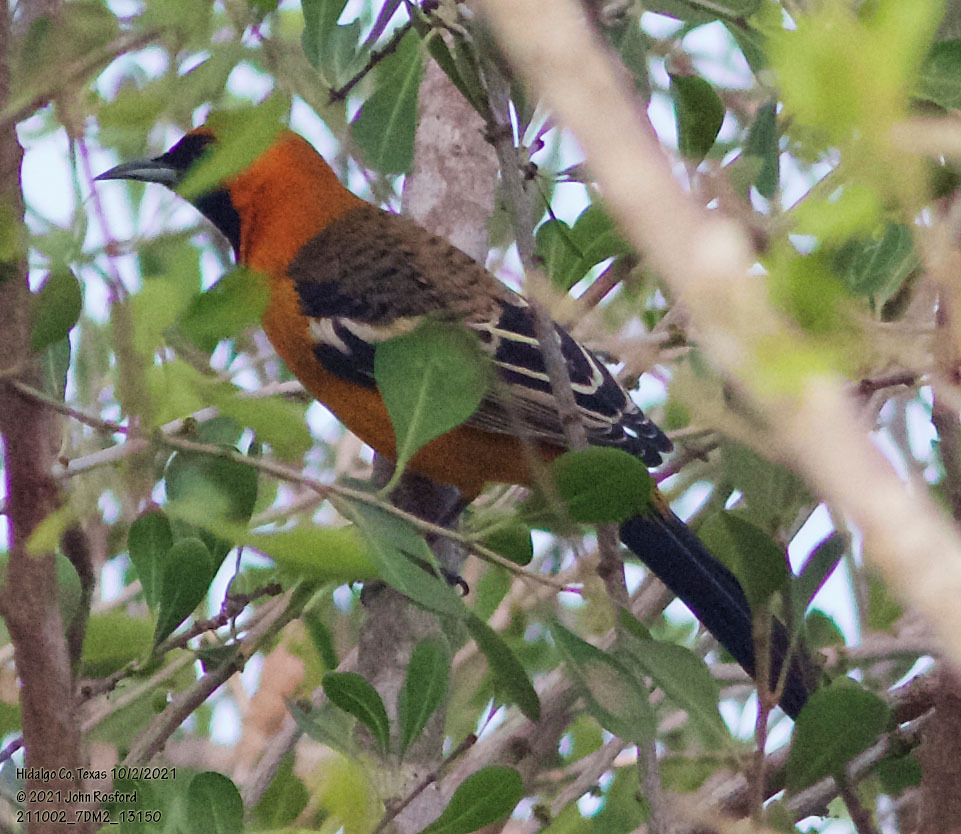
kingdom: Animalia
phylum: Chordata
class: Aves
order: Passeriformes
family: Icteridae
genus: Icterus
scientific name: Icterus cucullatus
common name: Hooded oriole
